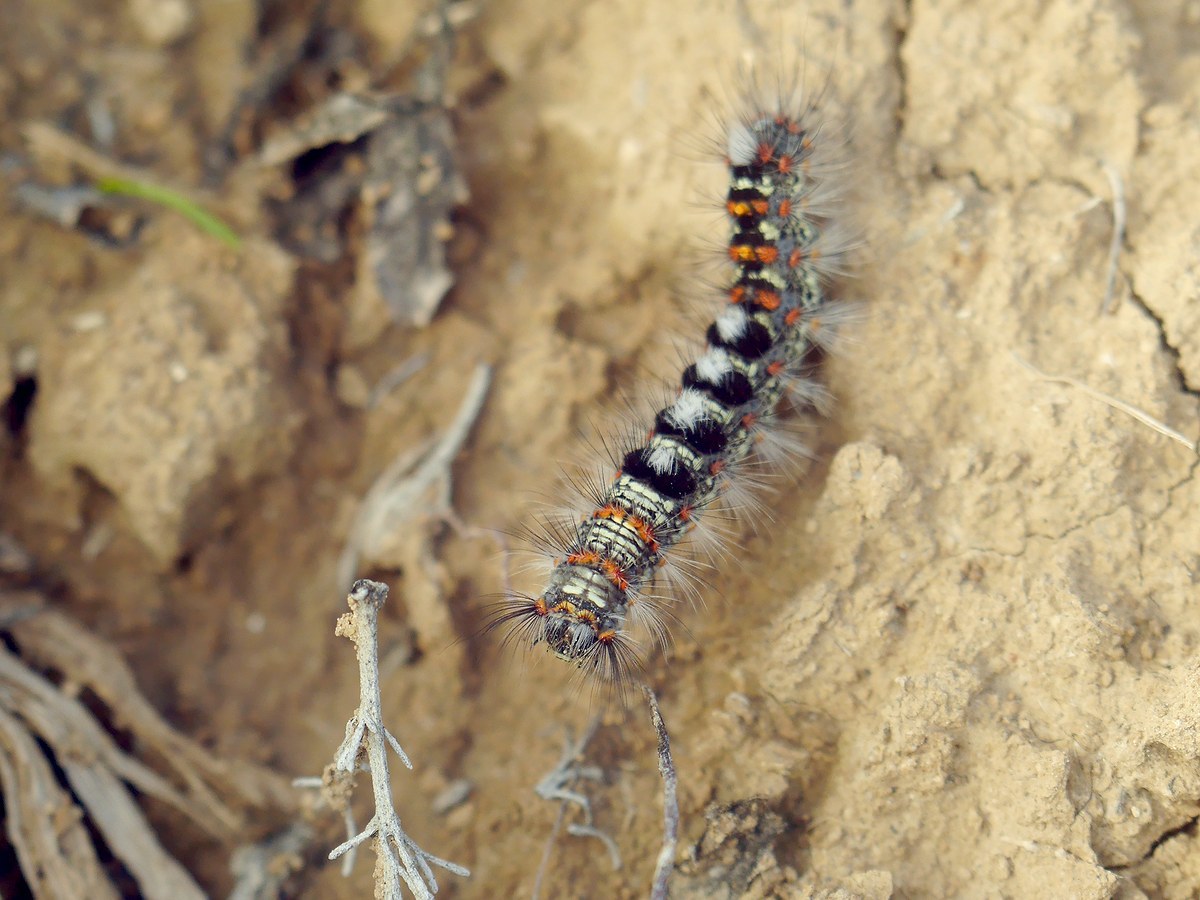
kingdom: Animalia
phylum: Arthropoda
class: Insecta
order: Lepidoptera
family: Erebidae
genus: Orgyia
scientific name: Orgyia dubia
